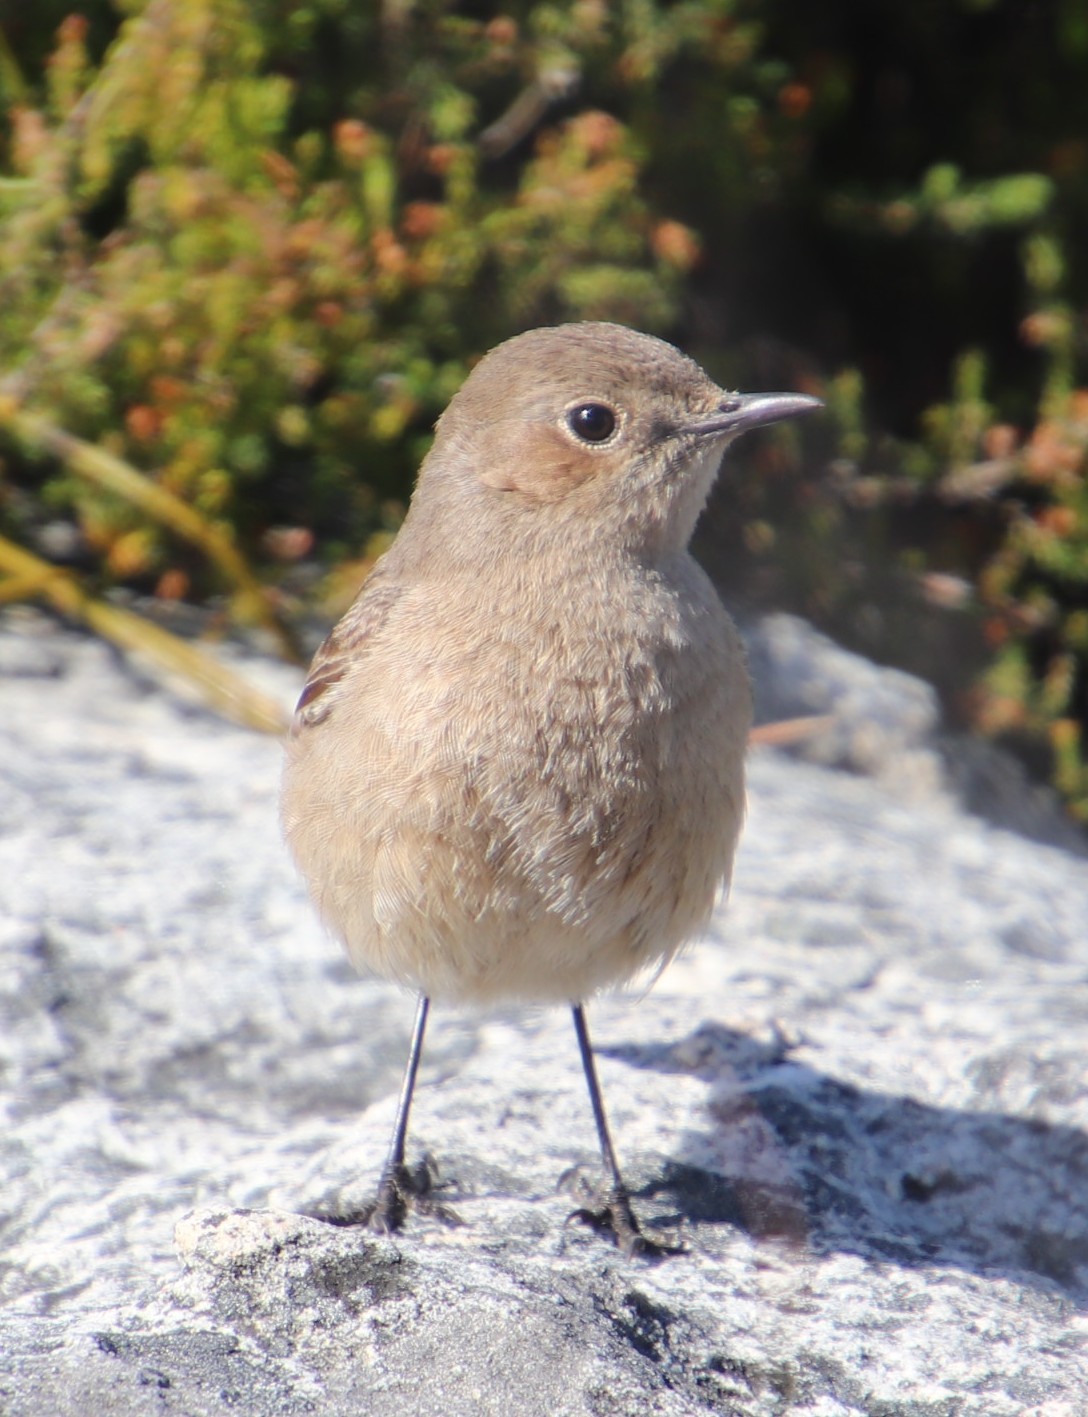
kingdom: Animalia
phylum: Chordata
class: Aves
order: Passeriformes
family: Muscicapidae
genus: Oenanthe
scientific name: Oenanthe familiaris
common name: Familiar chat
